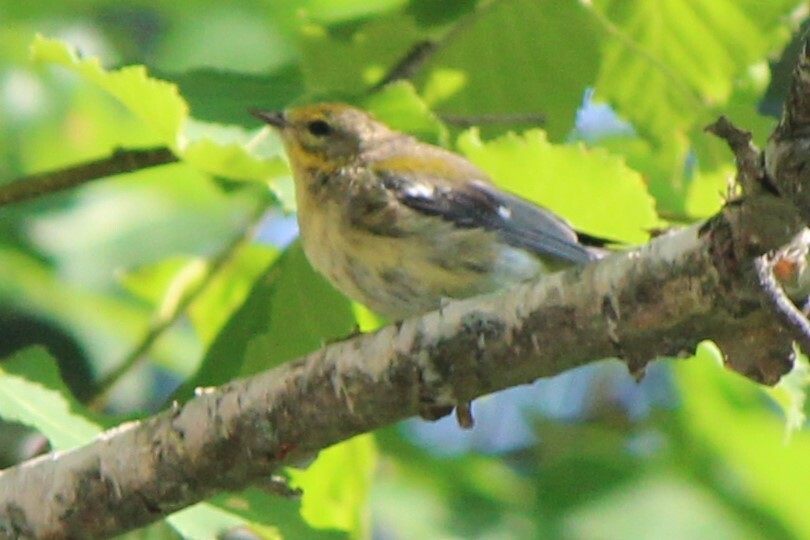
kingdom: Animalia
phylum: Chordata
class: Aves
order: Passeriformes
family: Parulidae
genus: Setophaga
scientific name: Setophaga virens
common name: Black-throated green warbler
